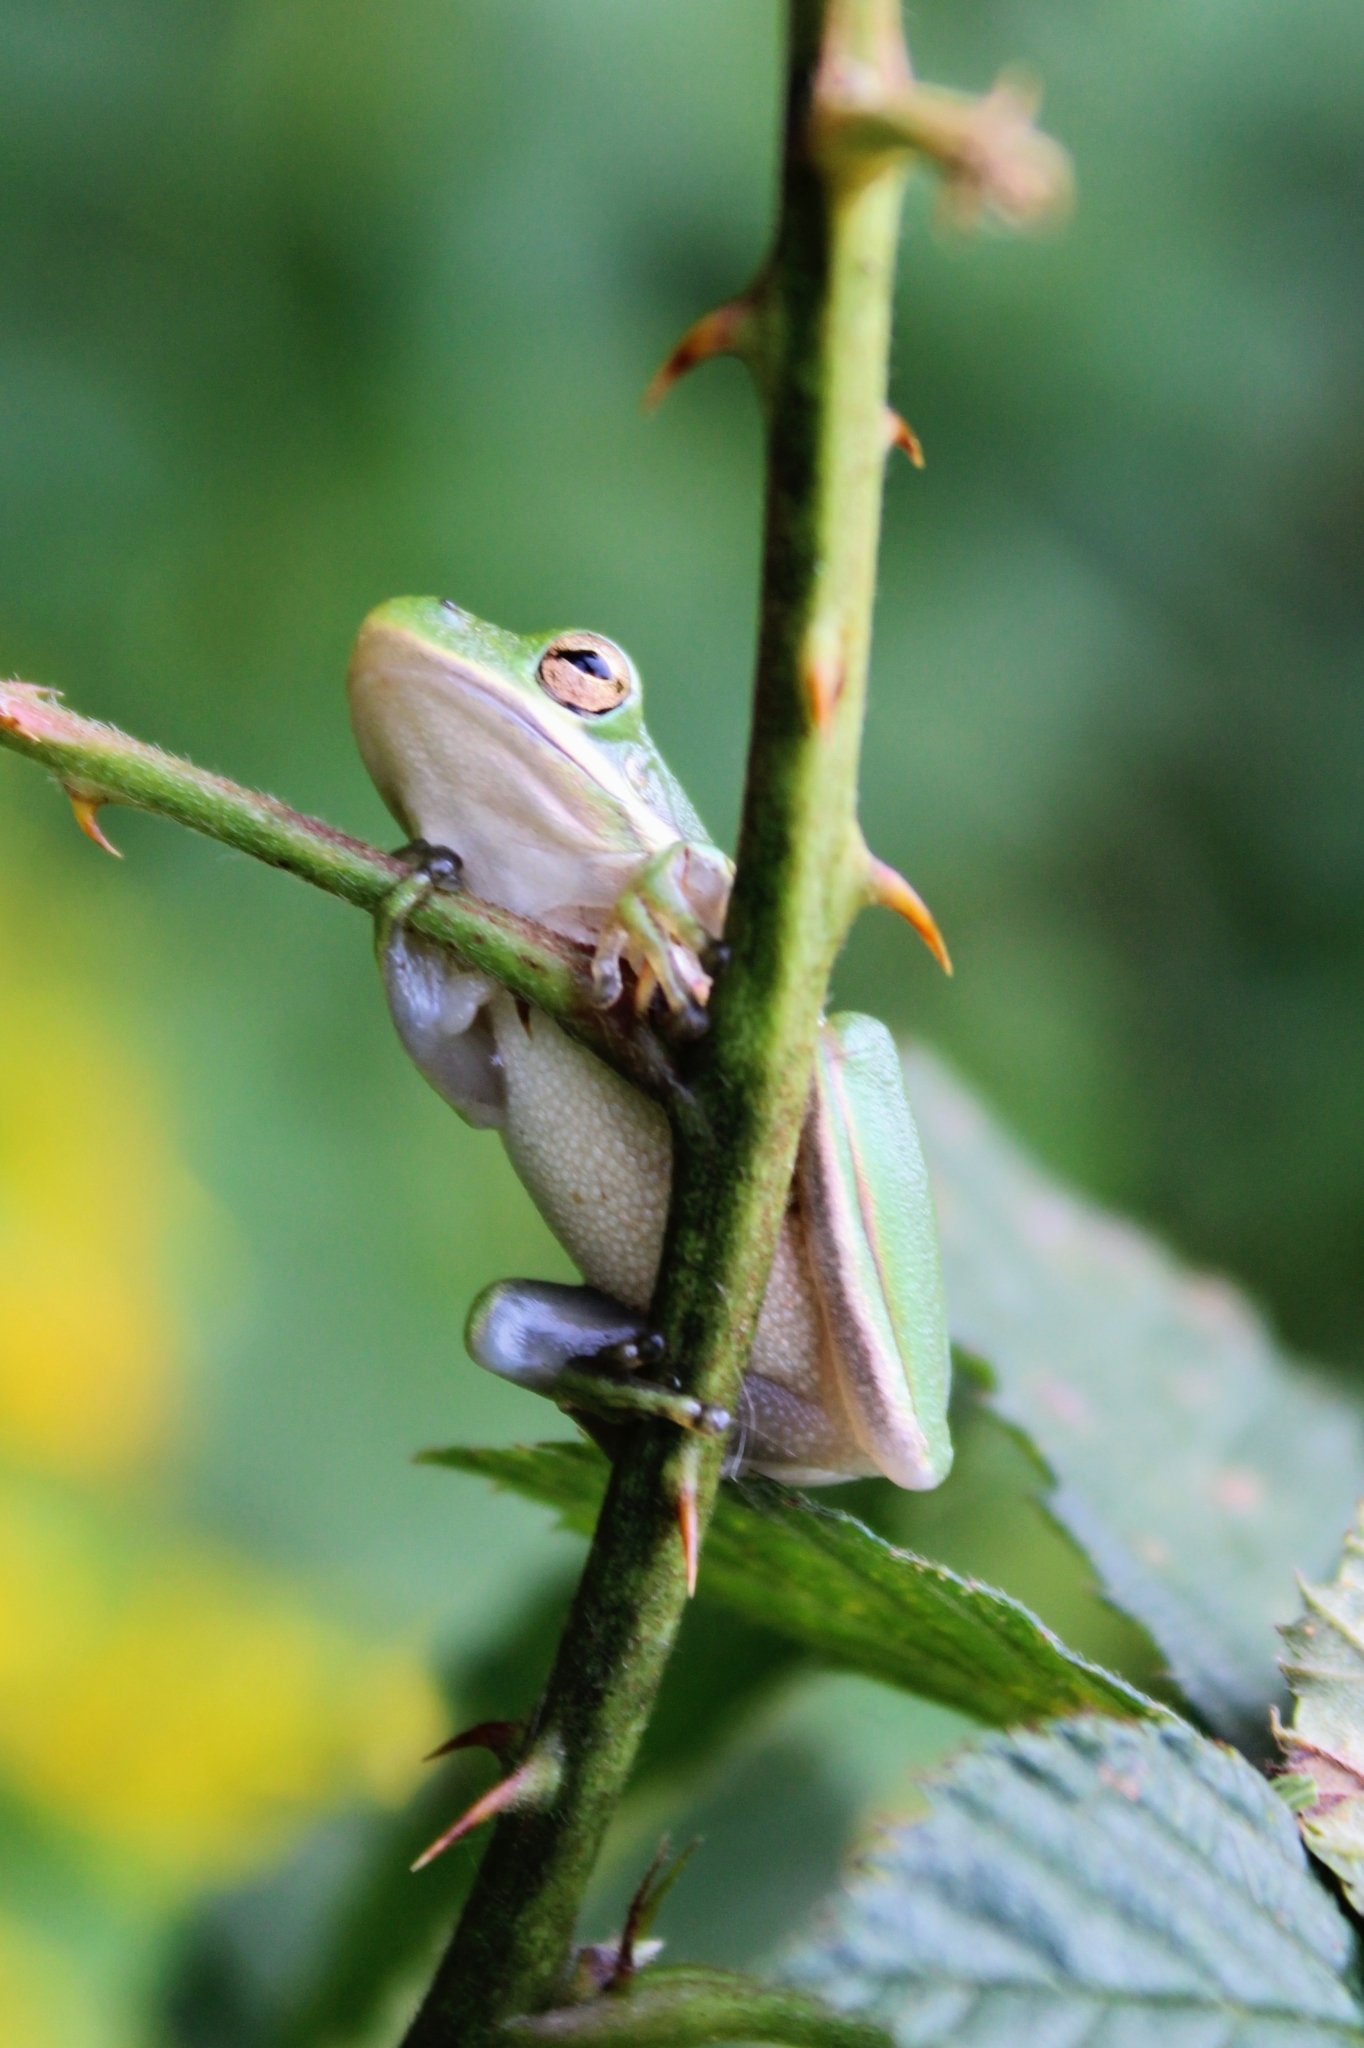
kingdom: Animalia
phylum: Chordata
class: Amphibia
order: Anura
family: Hylidae
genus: Dryophytes
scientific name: Dryophytes cinereus
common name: Green treefrog
